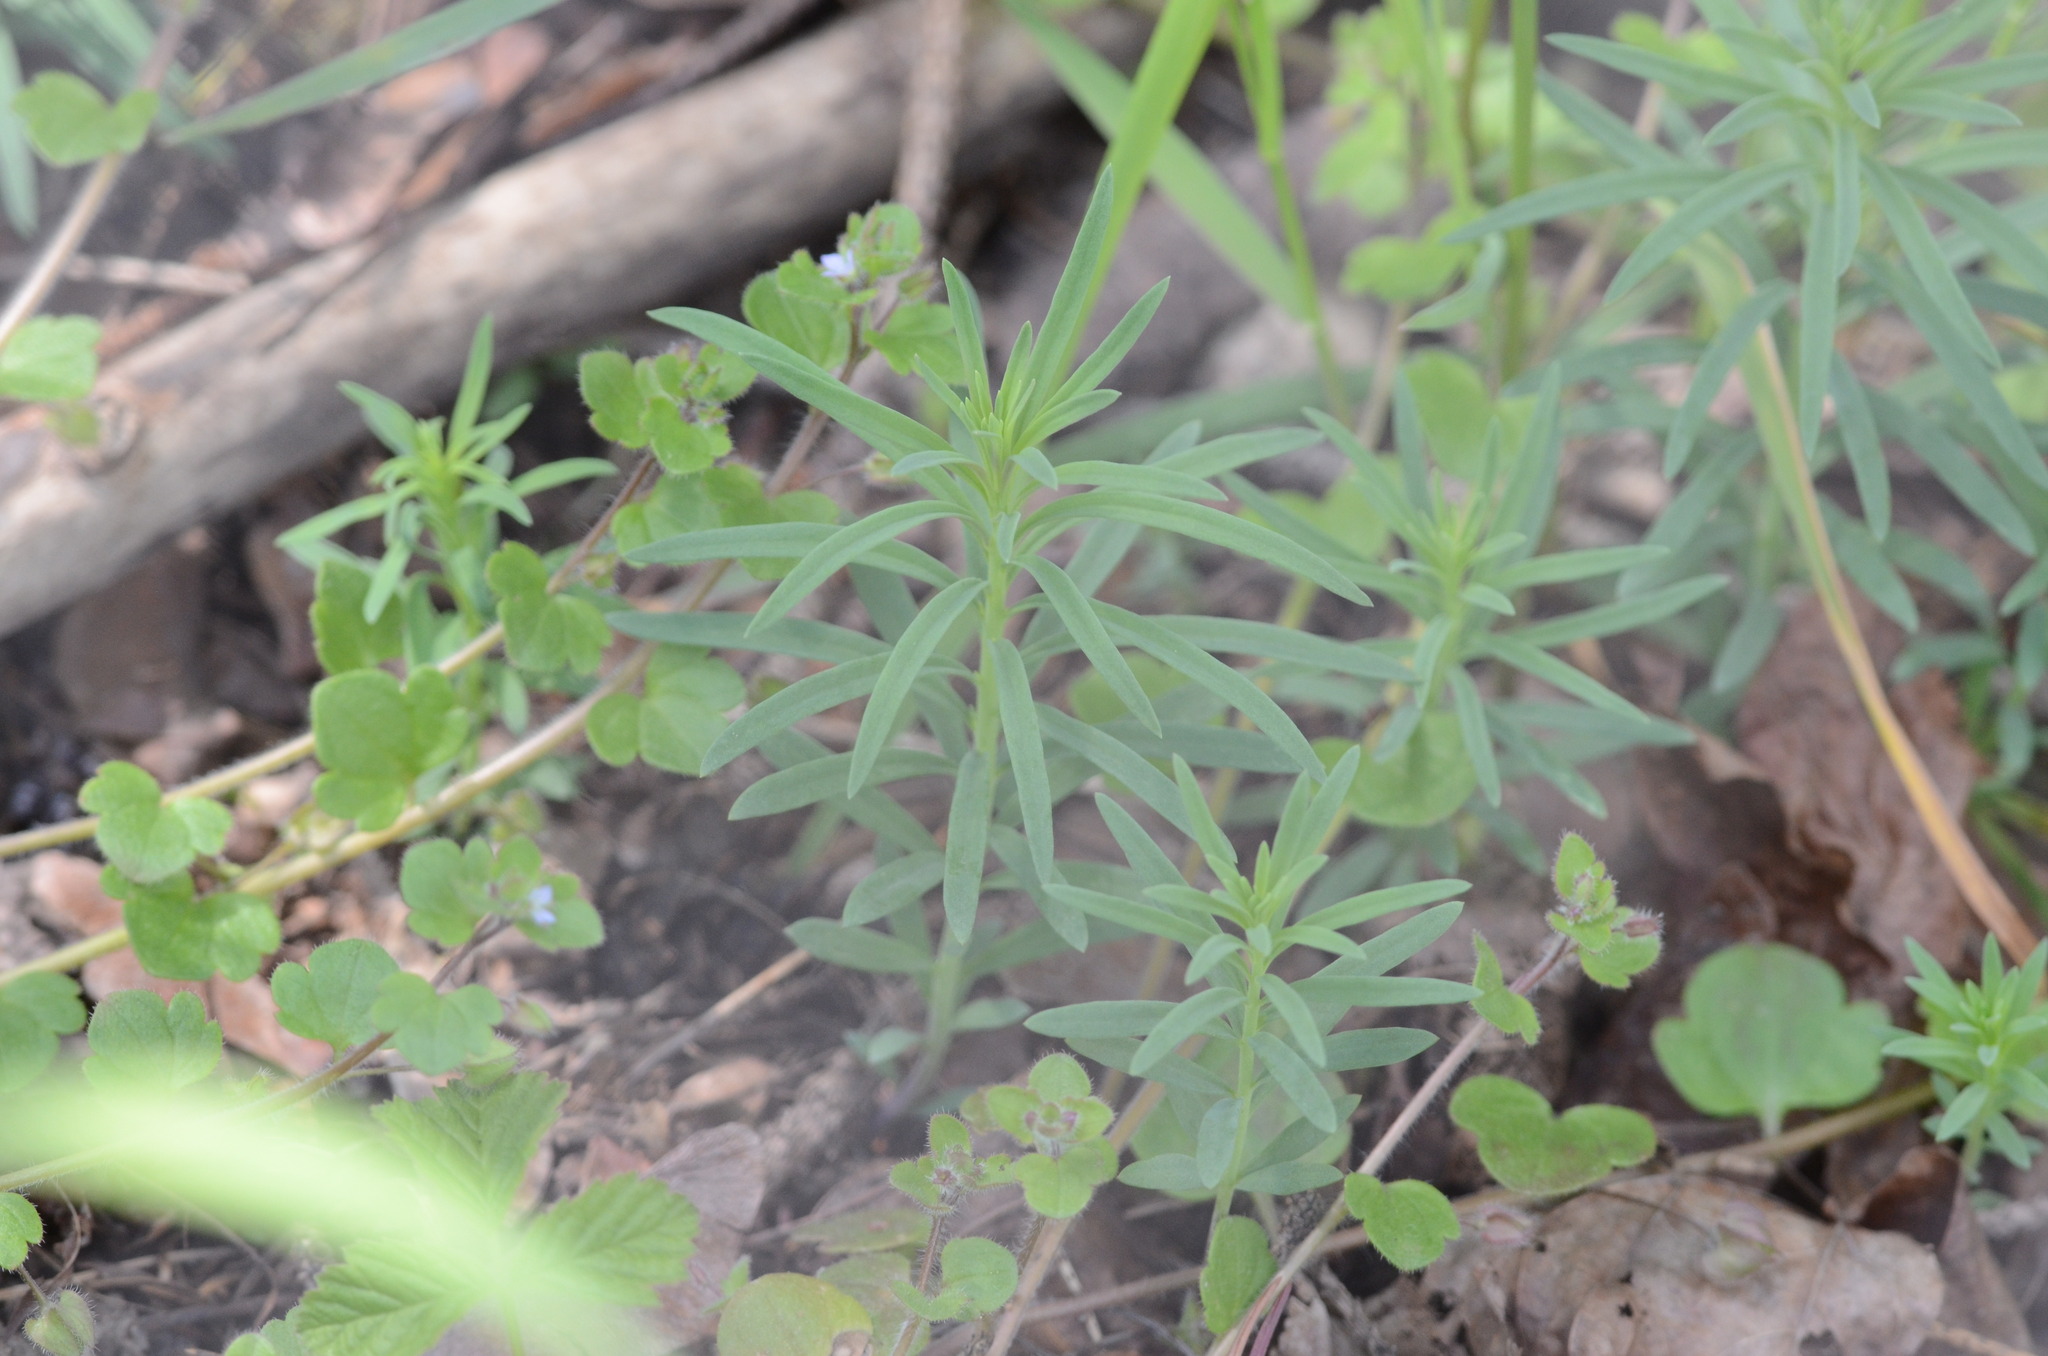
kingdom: Plantae
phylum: Tracheophyta
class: Magnoliopsida
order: Lamiales
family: Plantaginaceae
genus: Linaria
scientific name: Linaria vulgaris
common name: Butter and eggs
